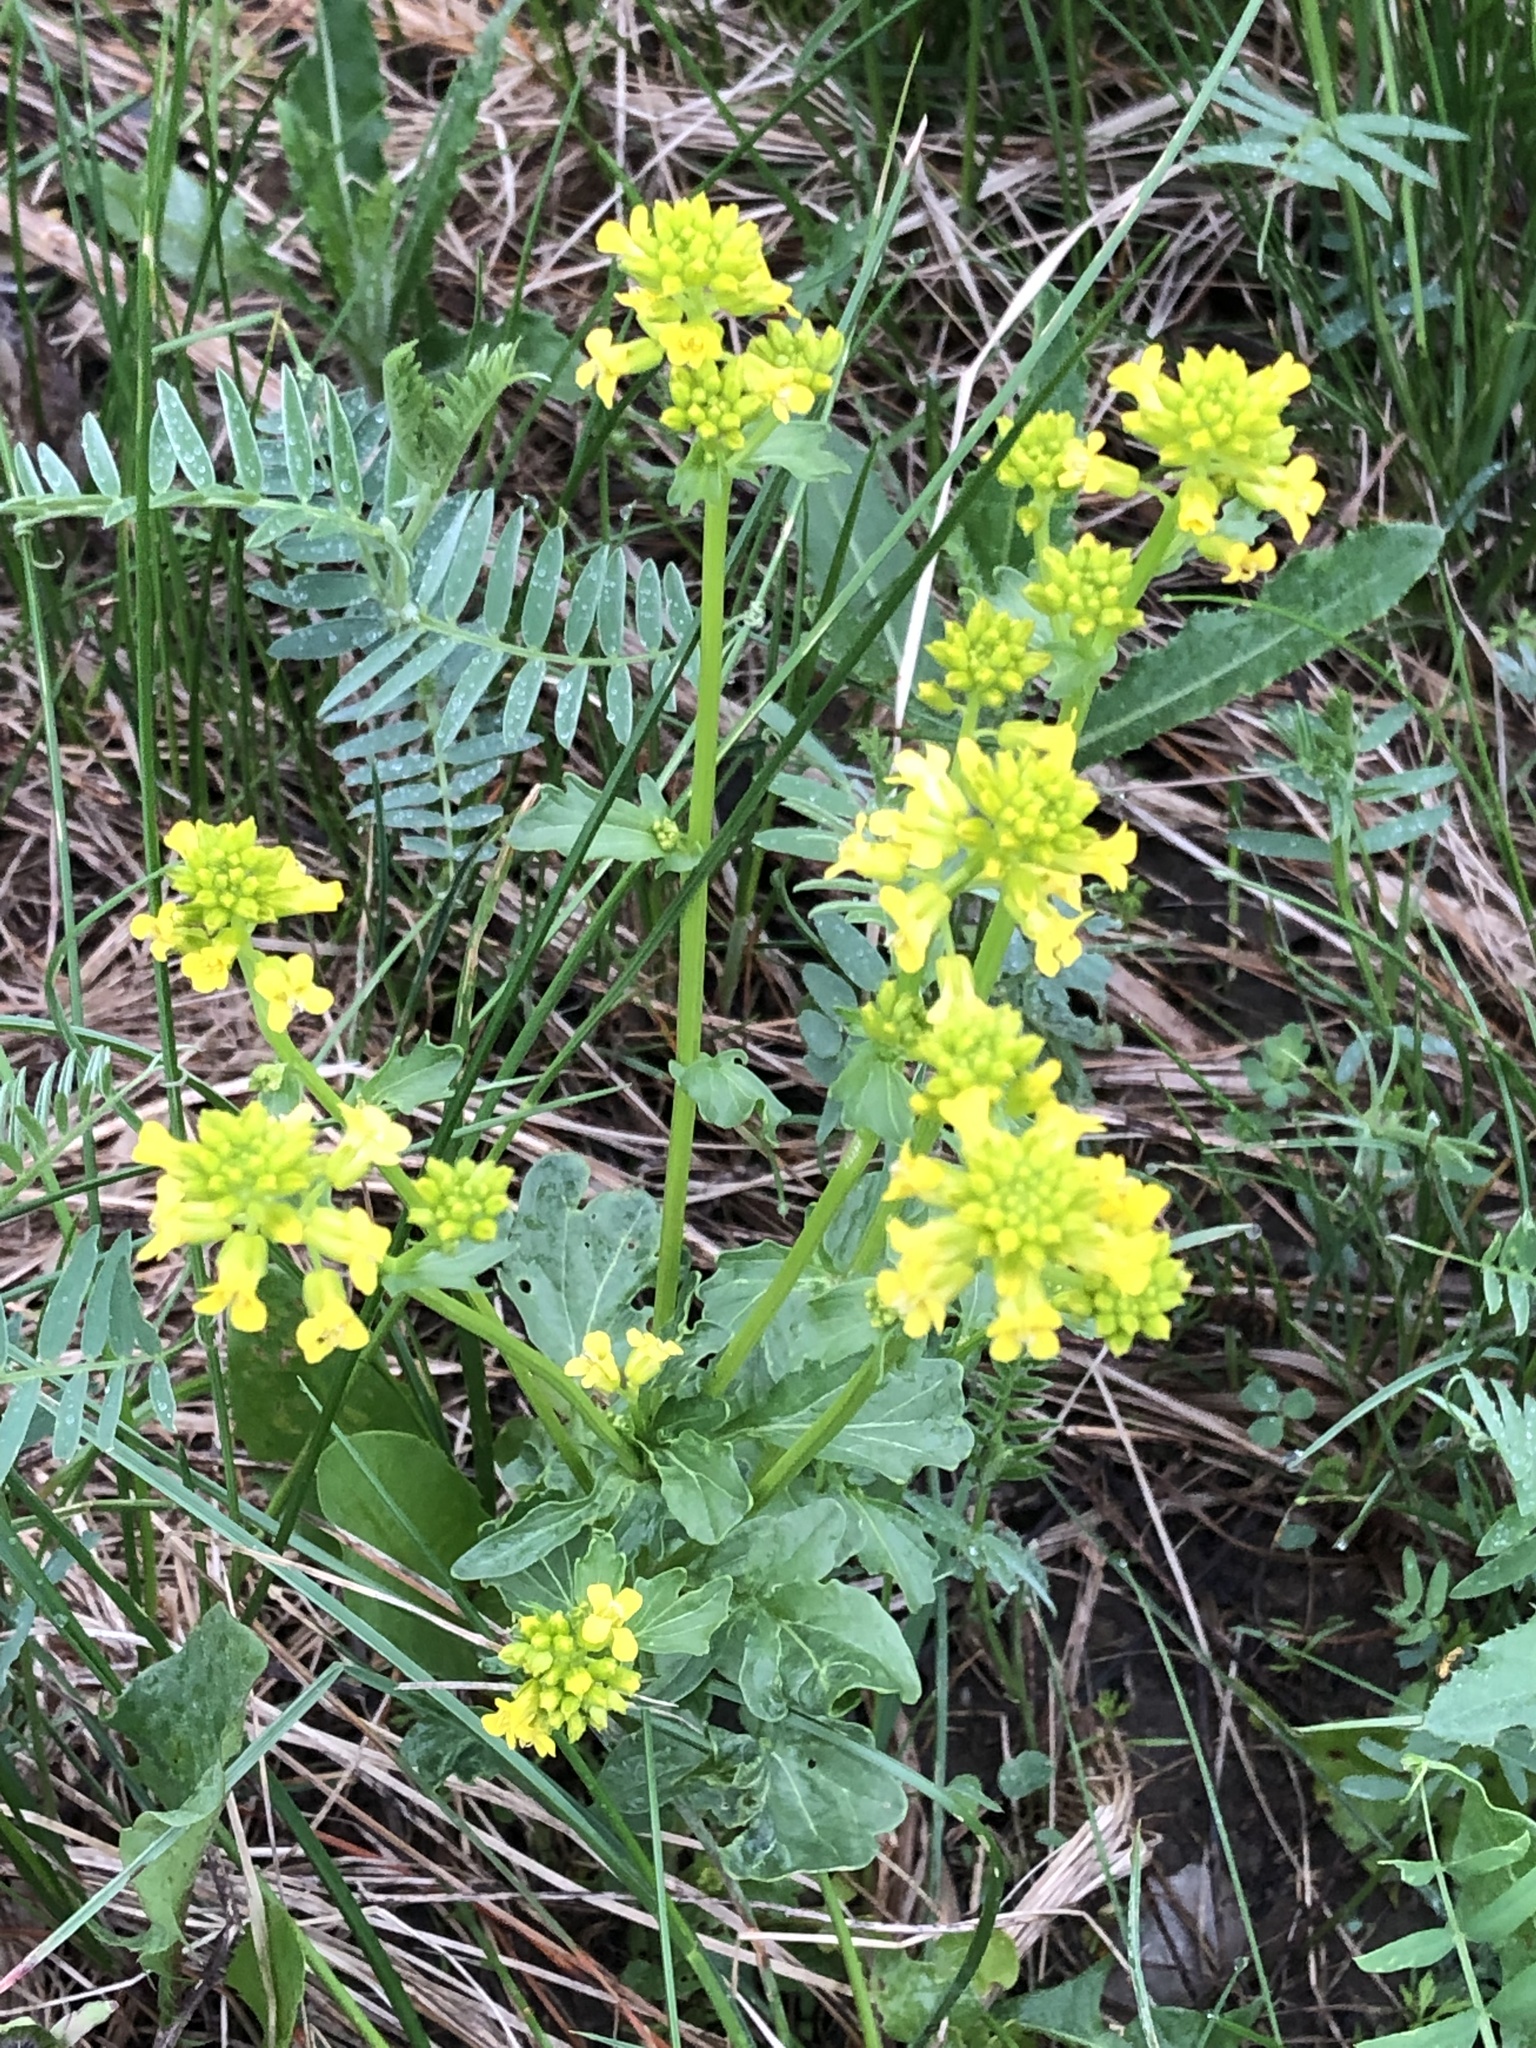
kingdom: Plantae
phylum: Tracheophyta
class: Magnoliopsida
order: Brassicales
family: Brassicaceae
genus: Barbarea
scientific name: Barbarea vulgaris
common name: Cressy-greens
